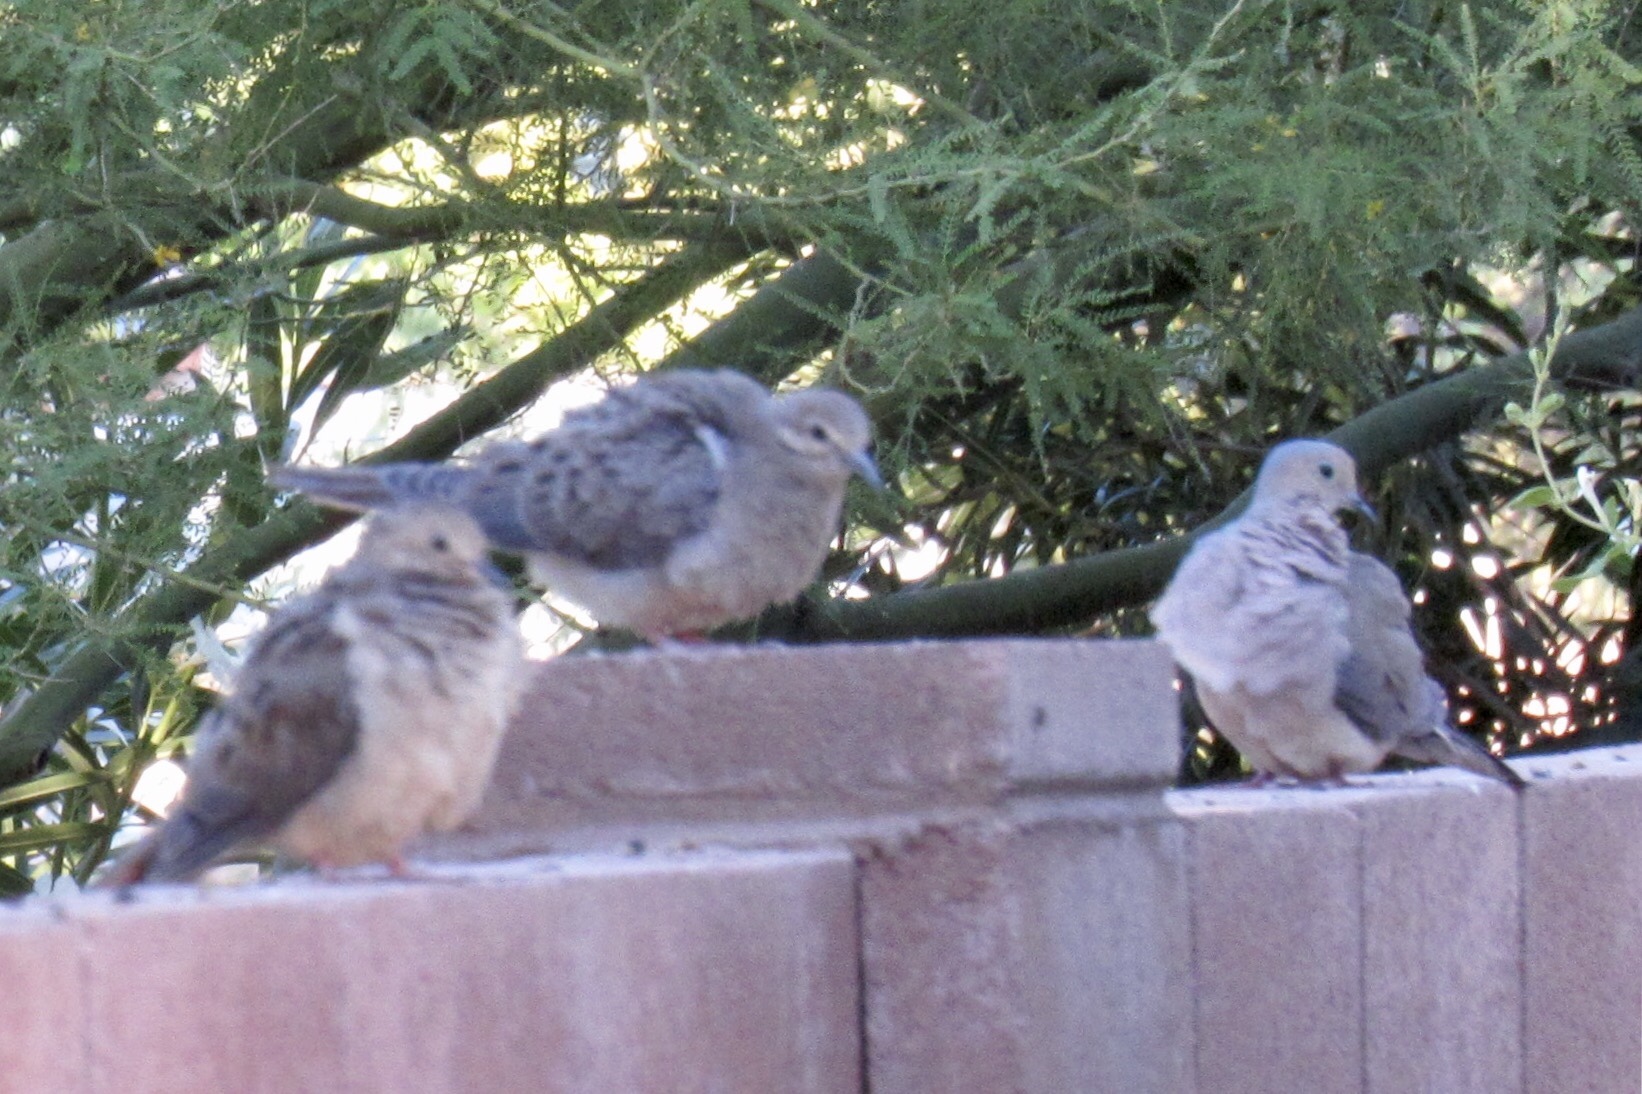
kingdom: Animalia
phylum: Chordata
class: Aves
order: Columbiformes
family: Columbidae
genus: Zenaida
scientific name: Zenaida macroura
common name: Mourning dove
